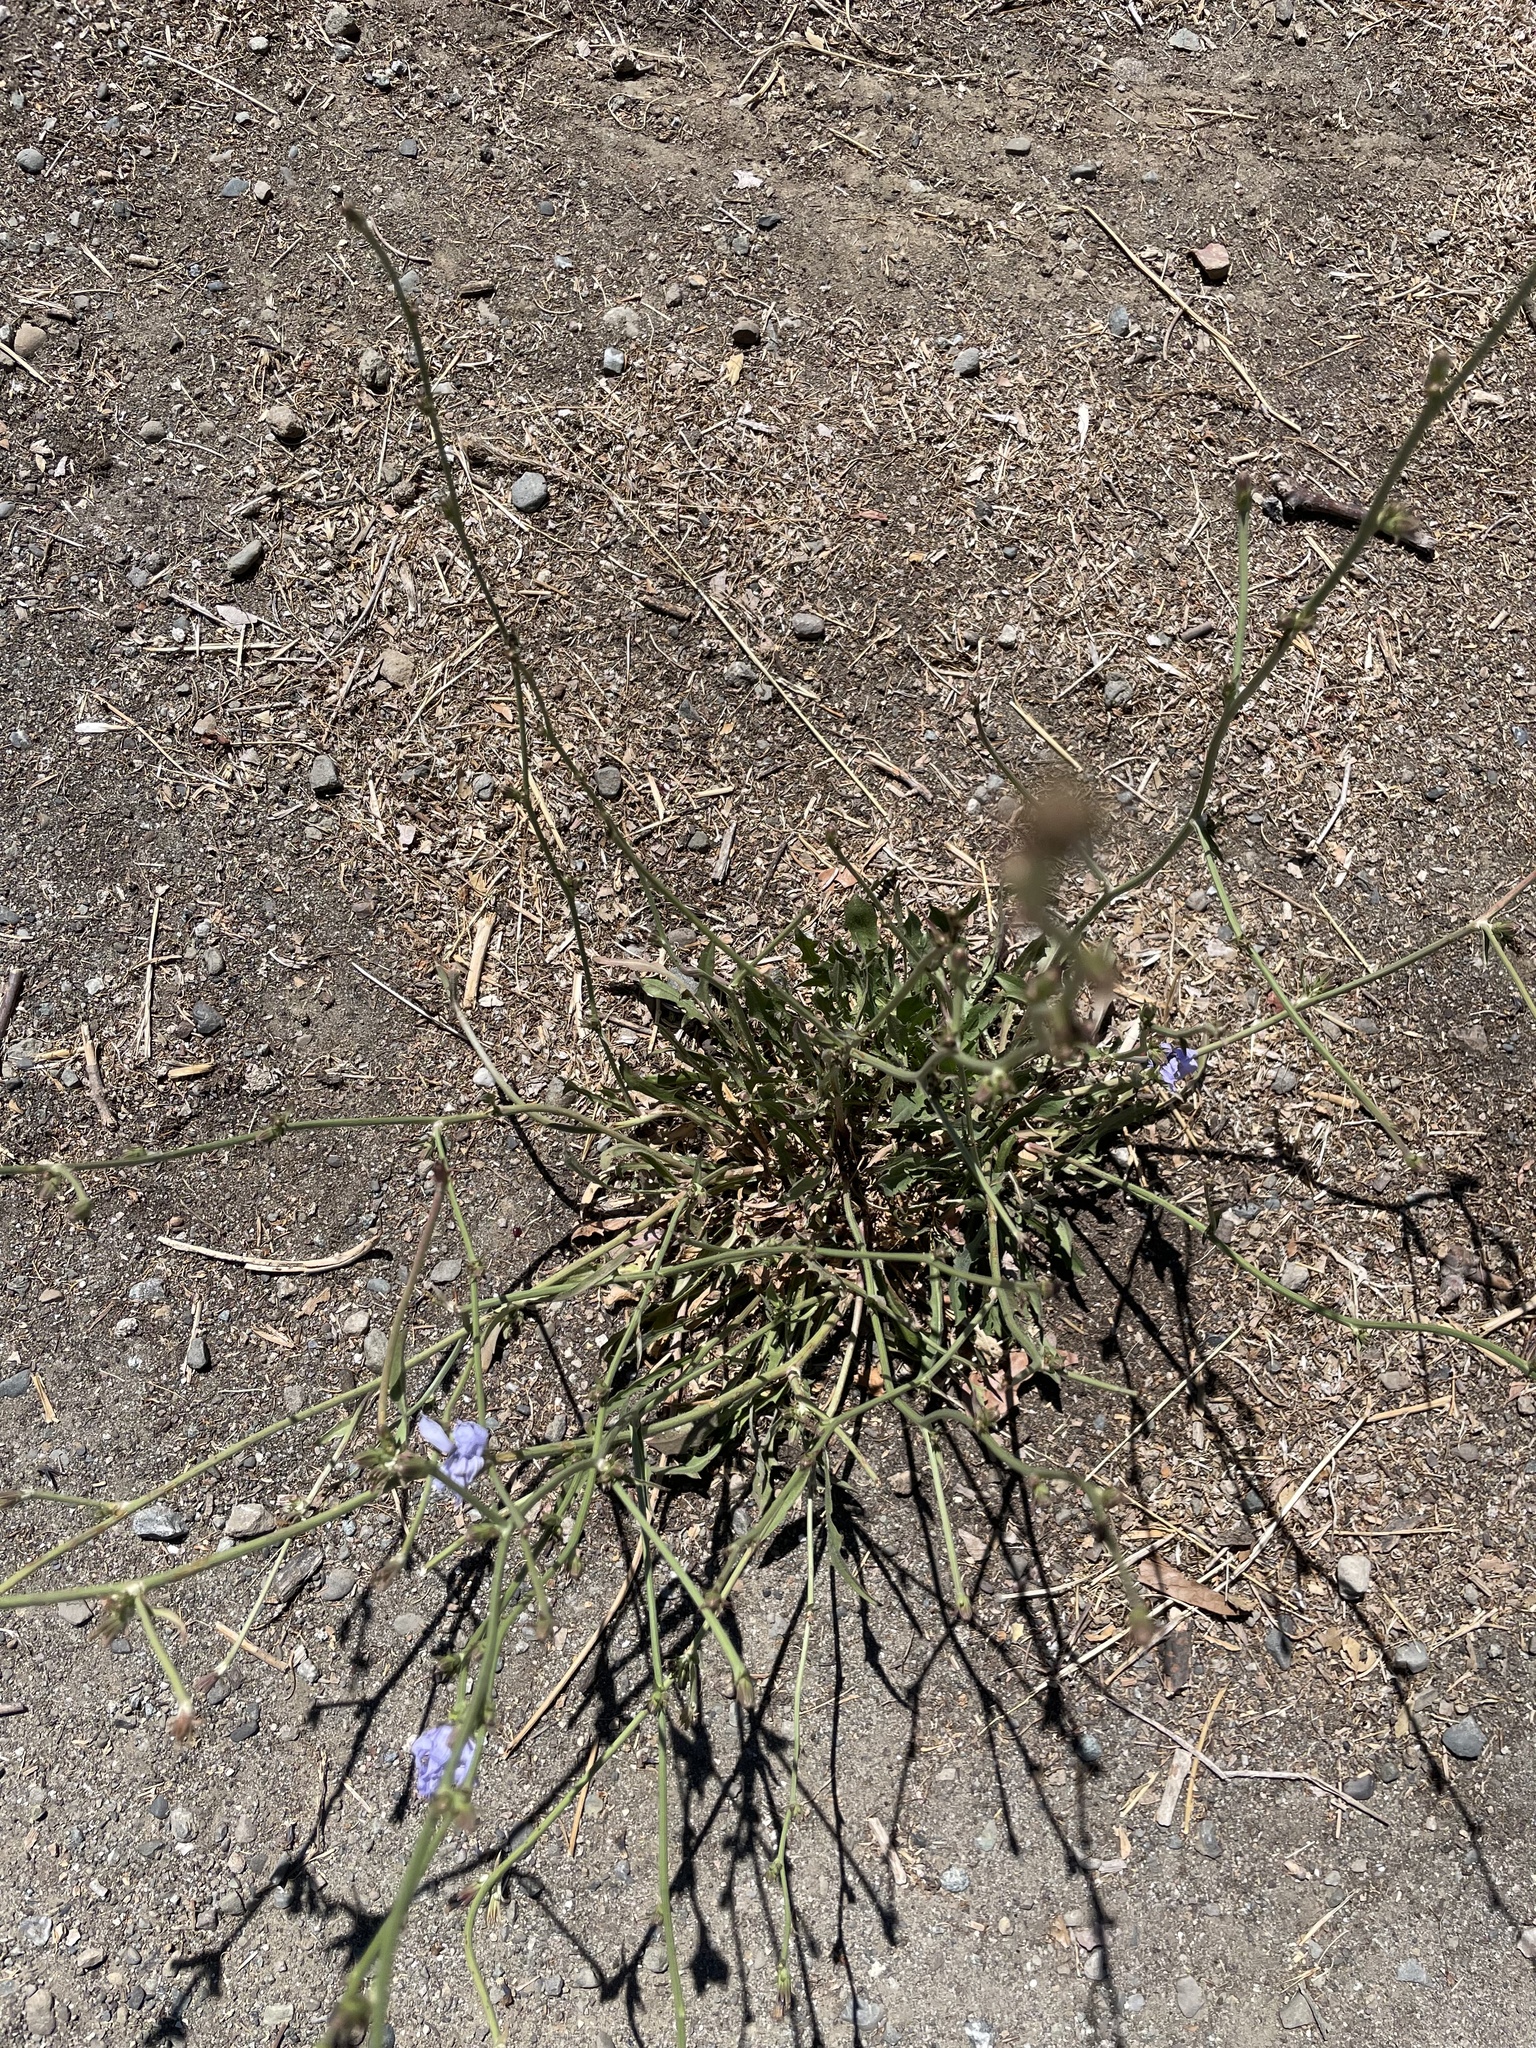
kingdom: Plantae
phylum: Tracheophyta
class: Magnoliopsida
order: Asterales
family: Asteraceae
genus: Cichorium
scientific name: Cichorium intybus
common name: Chicory
